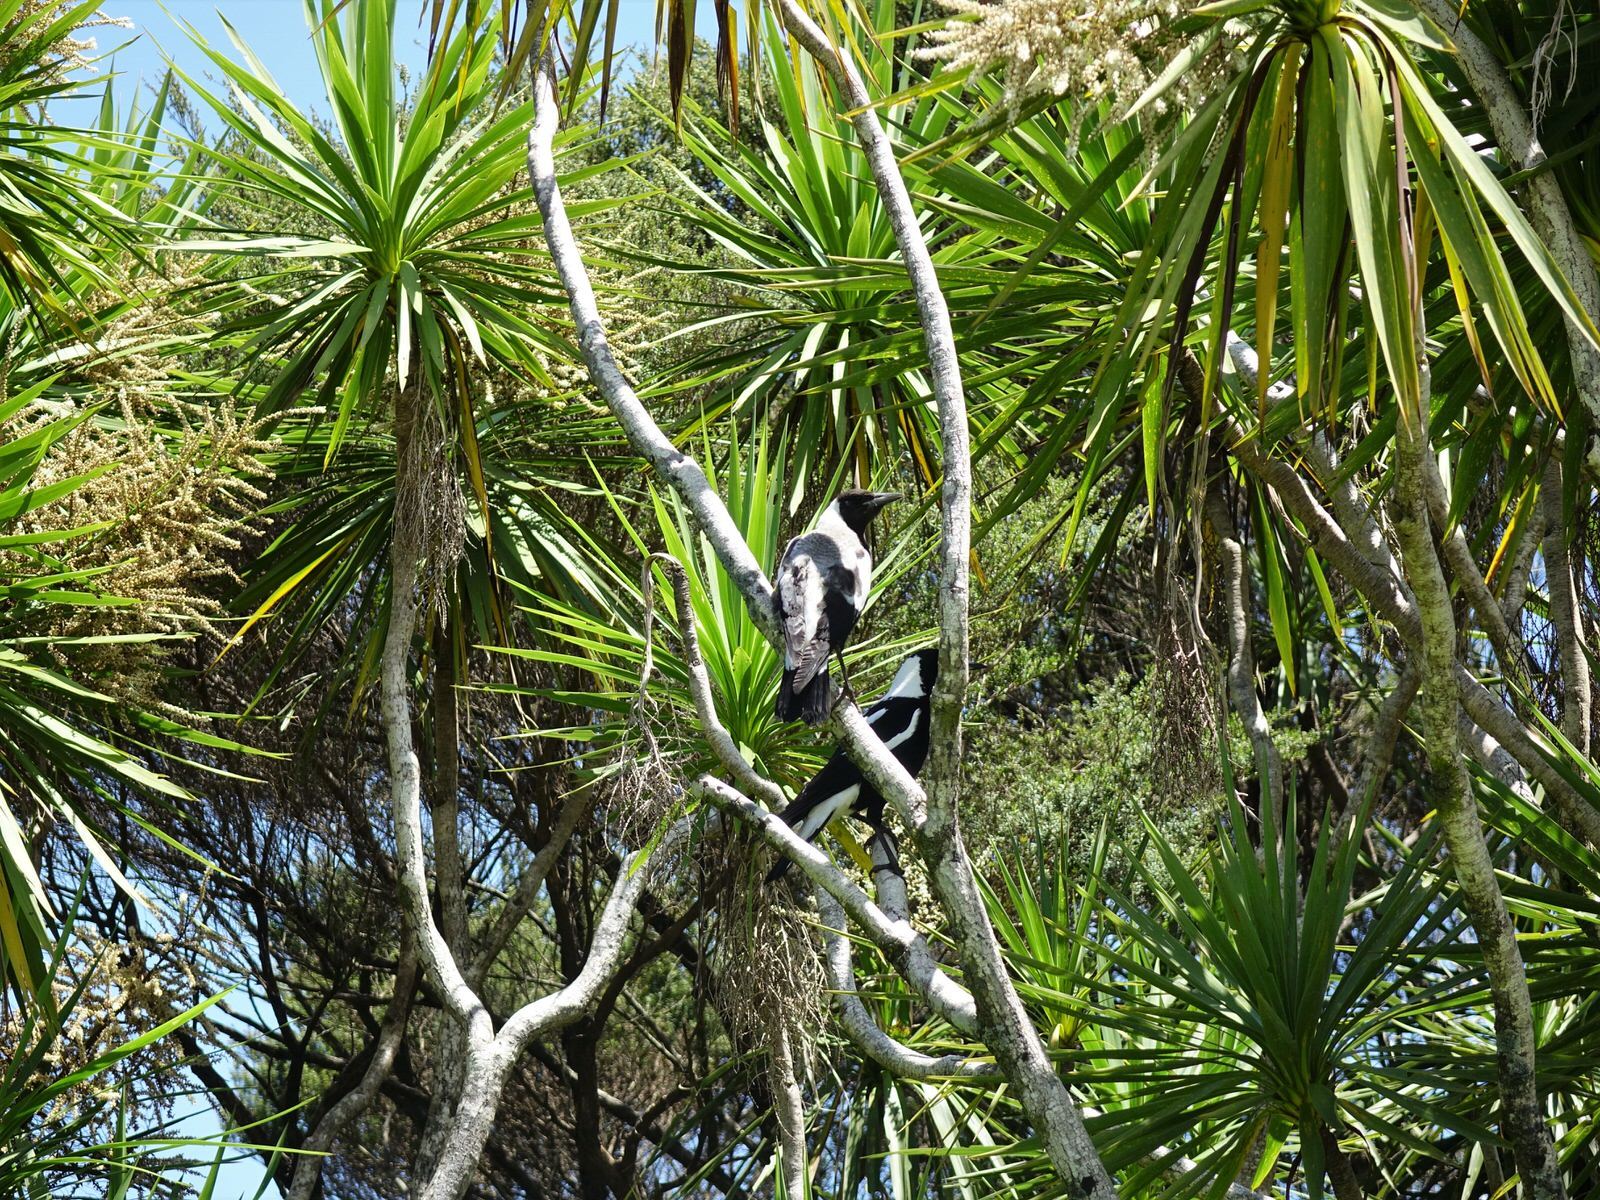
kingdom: Animalia
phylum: Chordata
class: Aves
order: Passeriformes
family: Cracticidae
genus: Gymnorhina
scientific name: Gymnorhina tibicen
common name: Australian magpie
